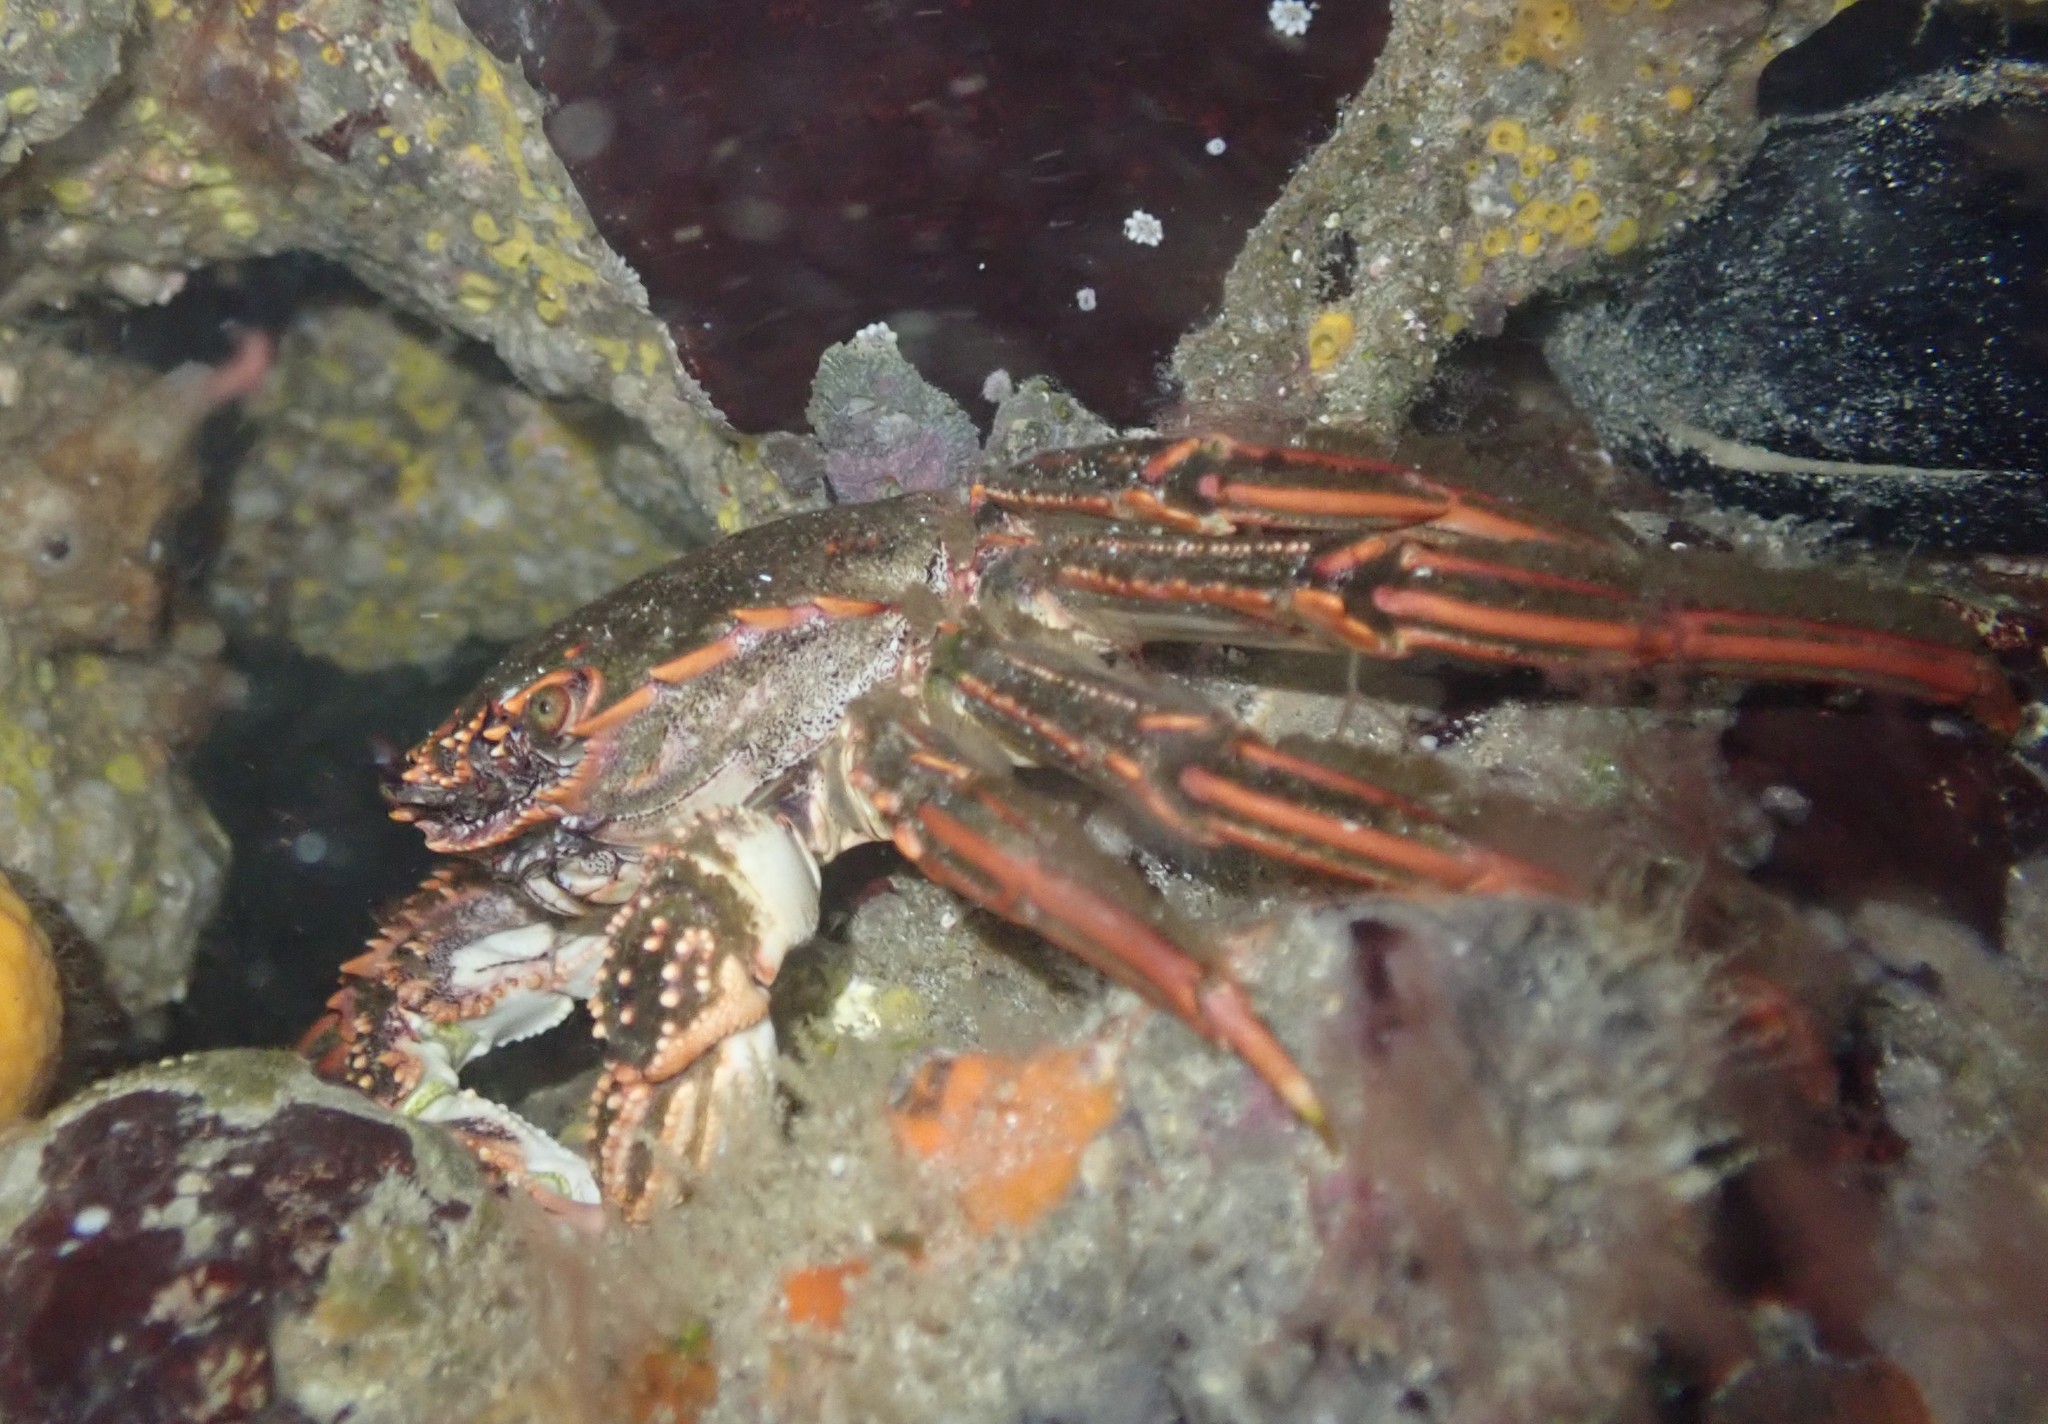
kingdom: Animalia
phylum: Arthropoda
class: Malacostraca
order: Decapoda
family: Plagusiidae
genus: Guinusia
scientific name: Guinusia chabrus
